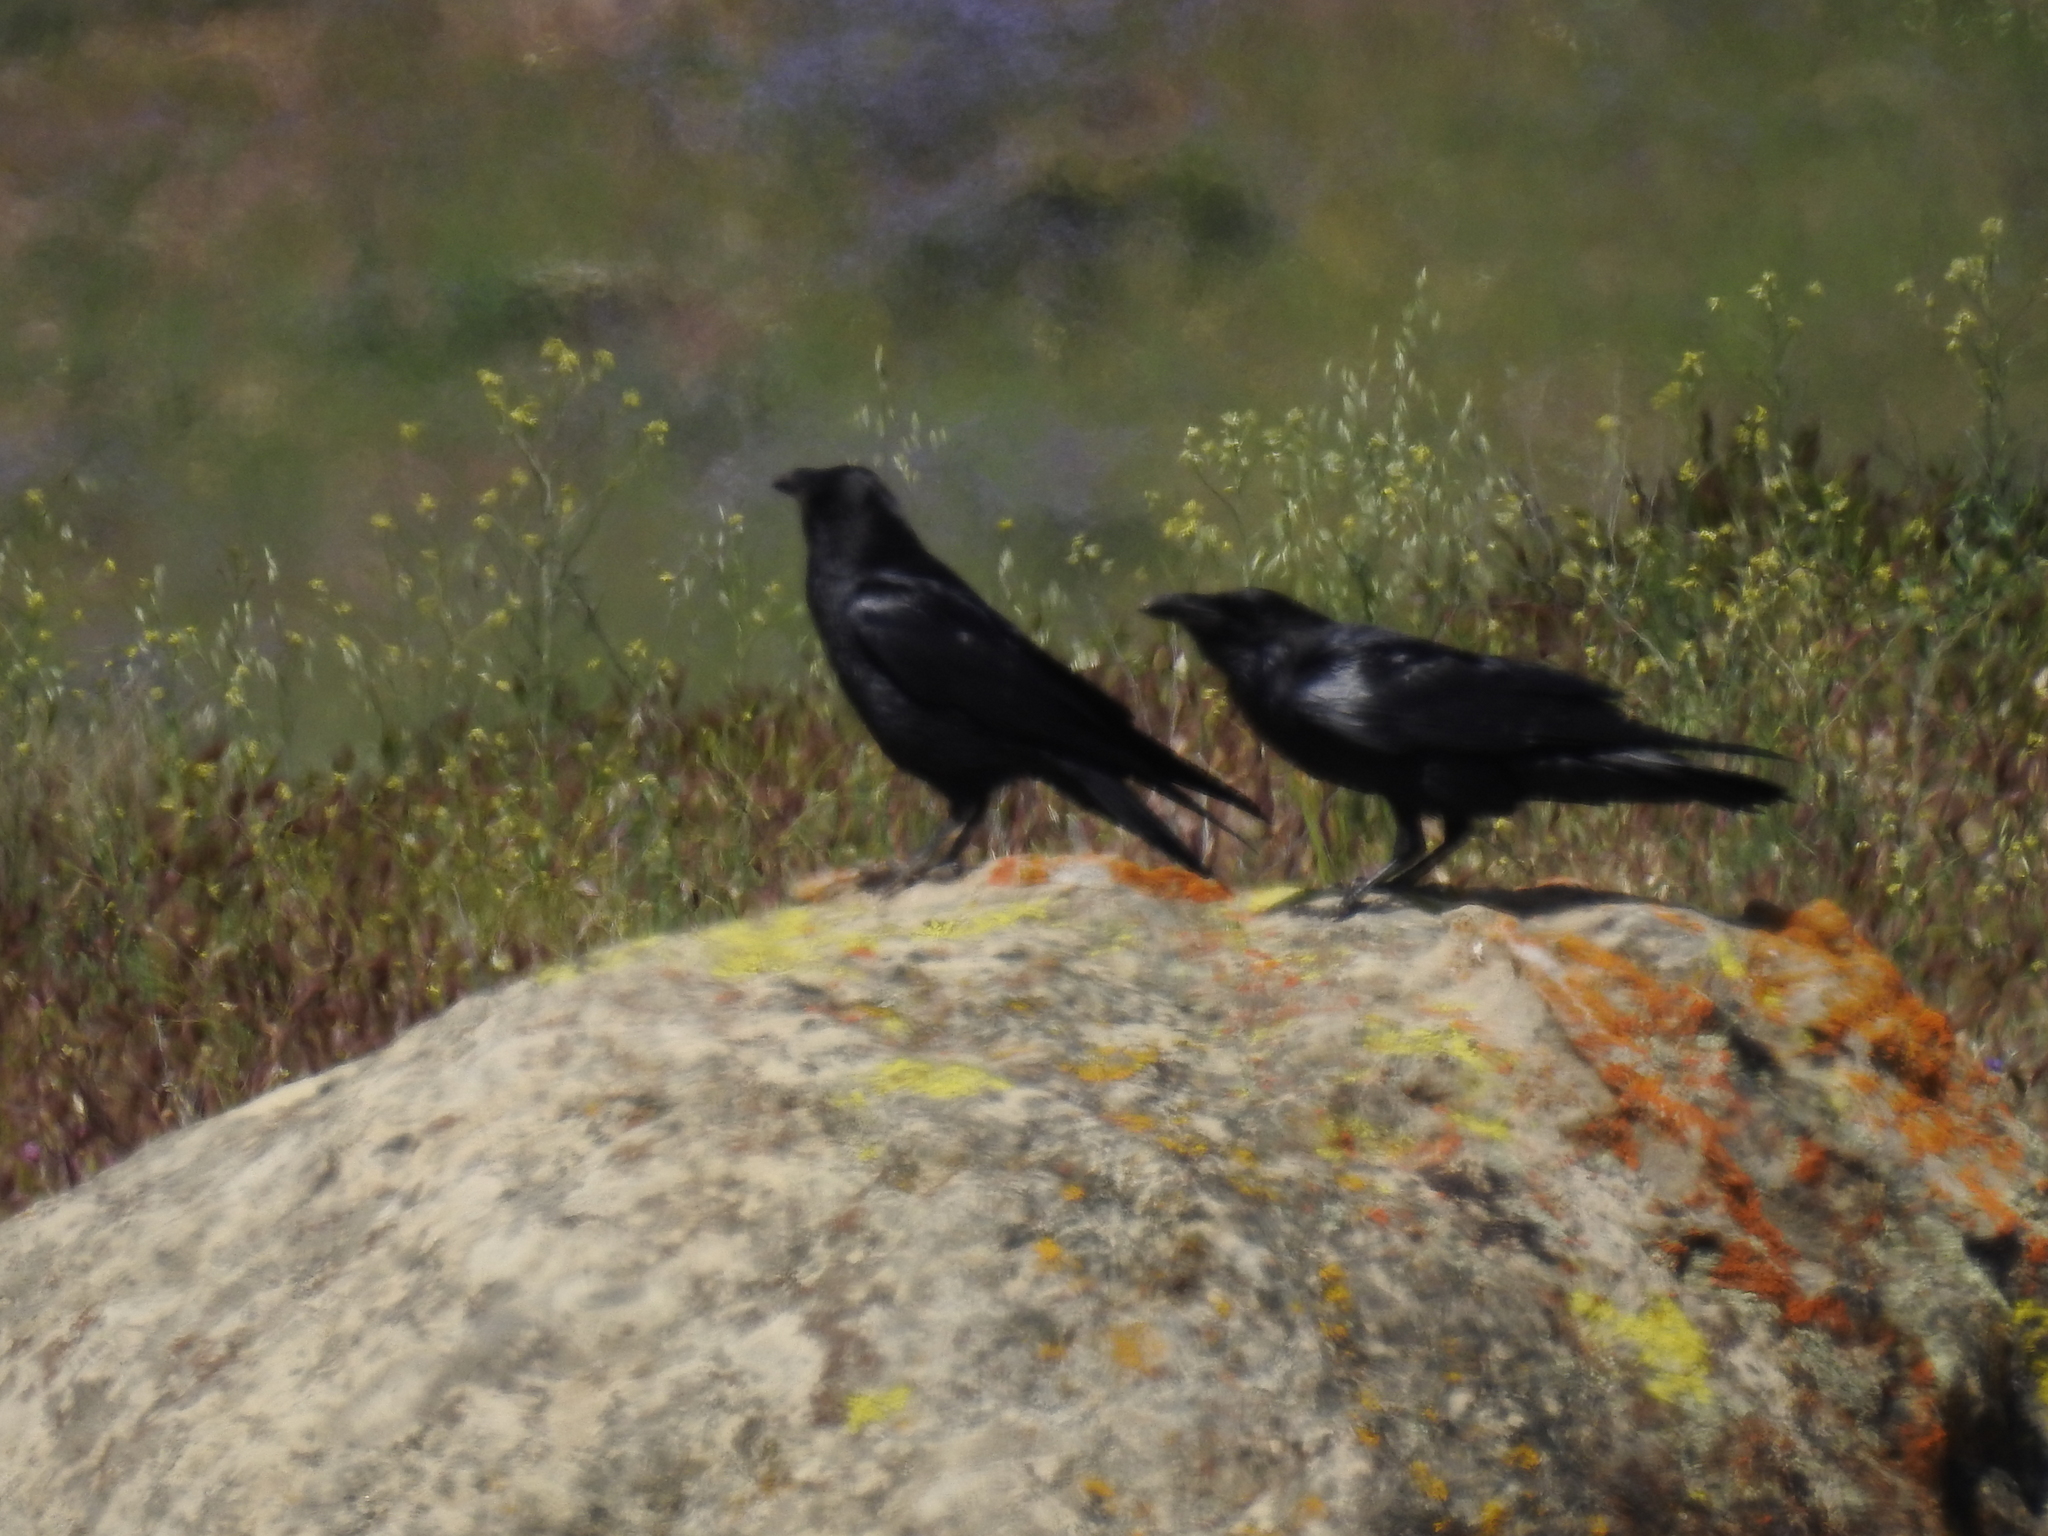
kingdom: Animalia
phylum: Chordata
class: Aves
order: Passeriformes
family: Corvidae
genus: Corvus
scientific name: Corvus corax
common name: Common raven
